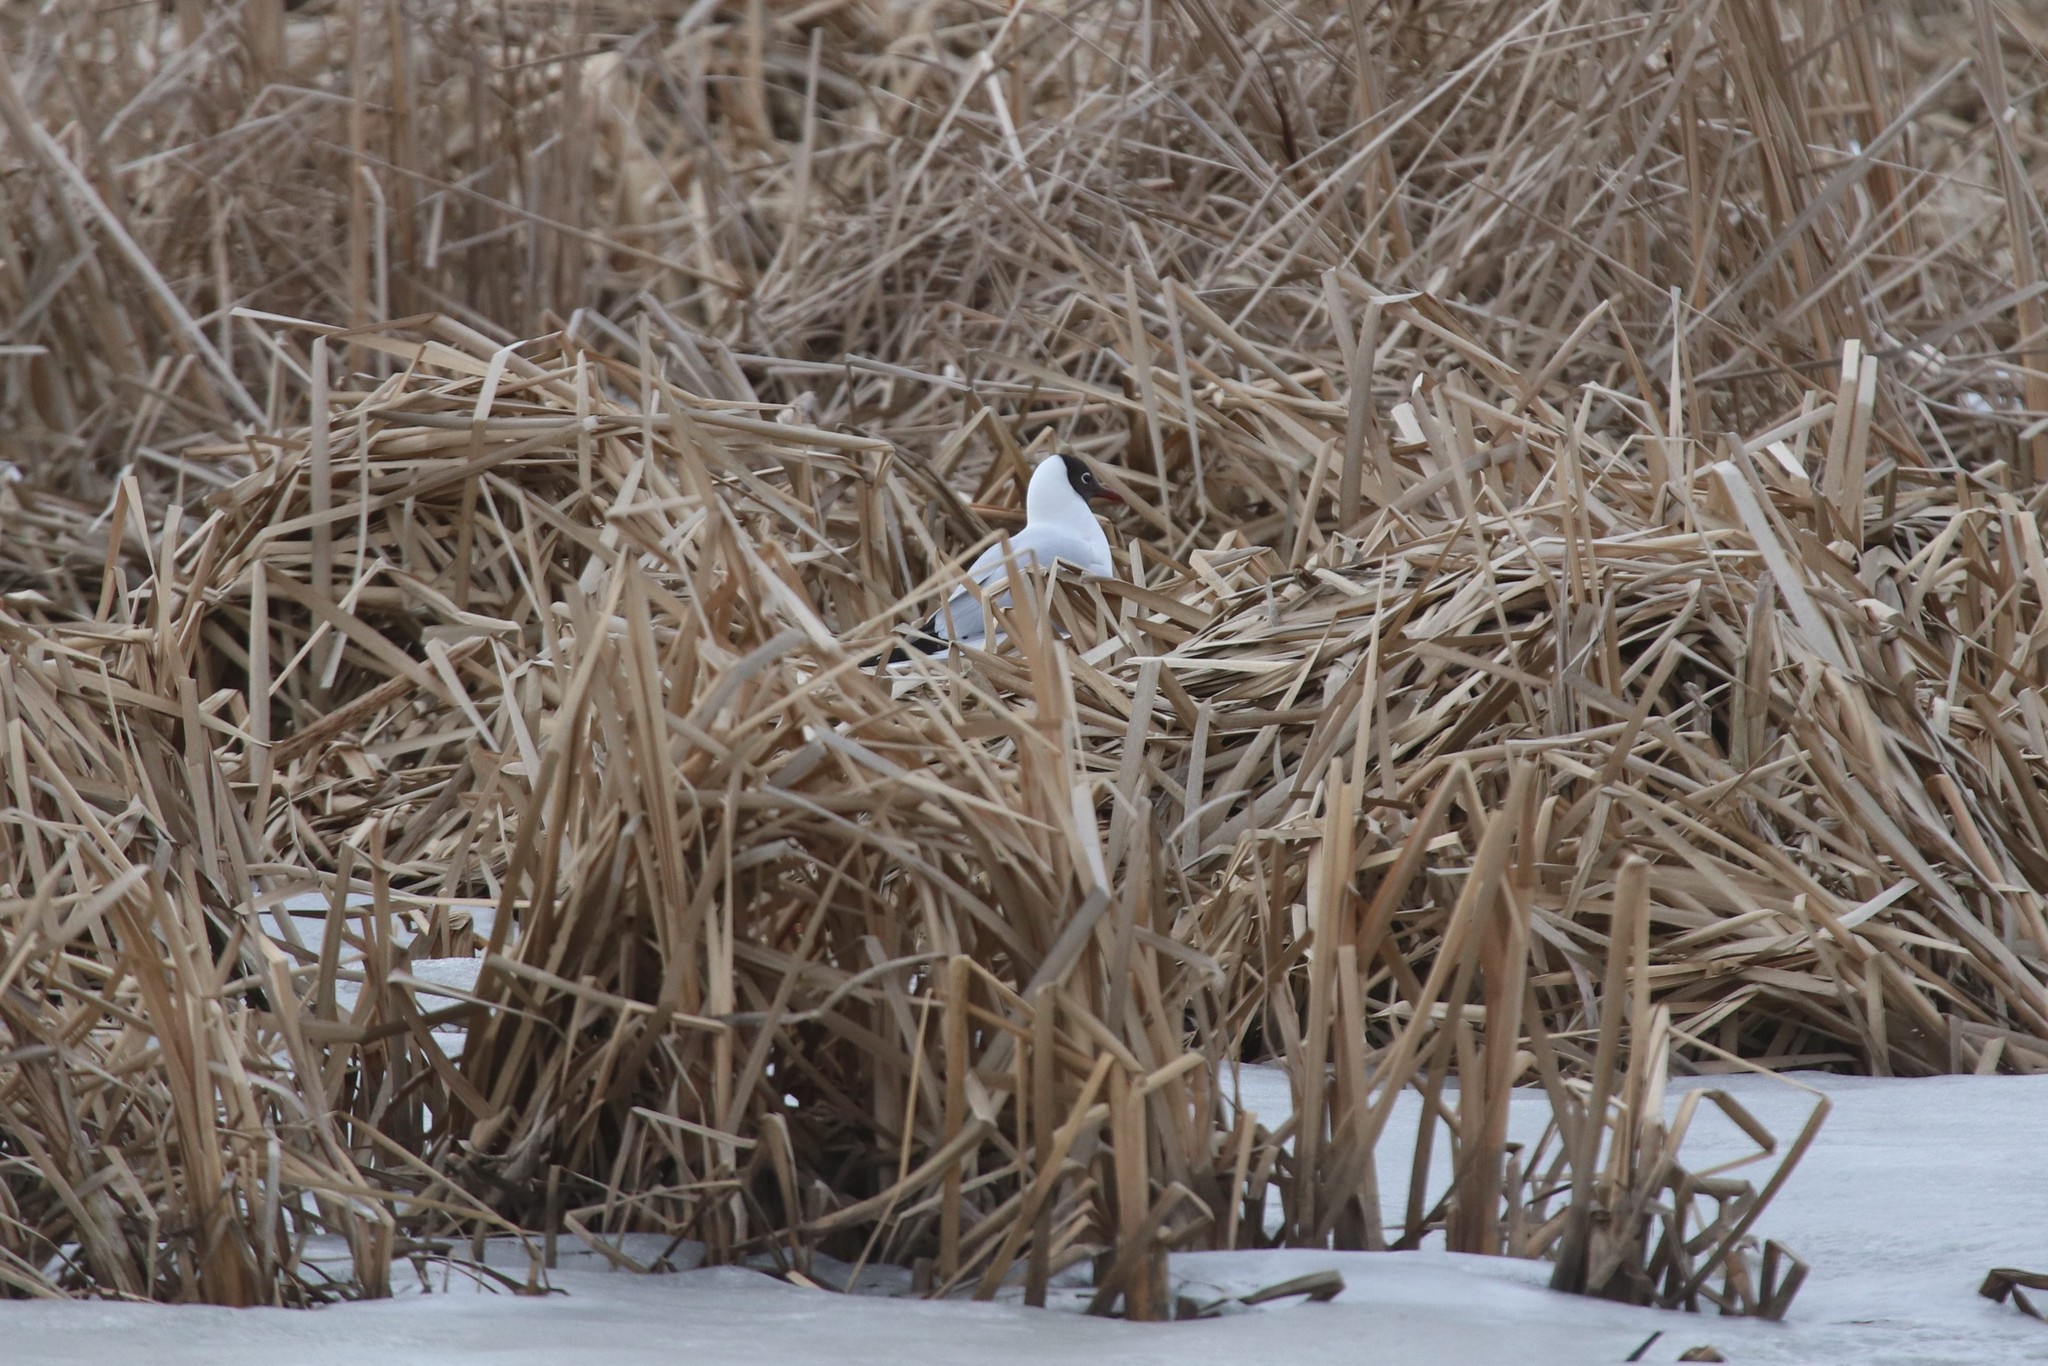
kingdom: Animalia
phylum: Chordata
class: Aves
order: Charadriiformes
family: Laridae
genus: Chroicocephalus
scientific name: Chroicocephalus ridibundus
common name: Black-headed gull
